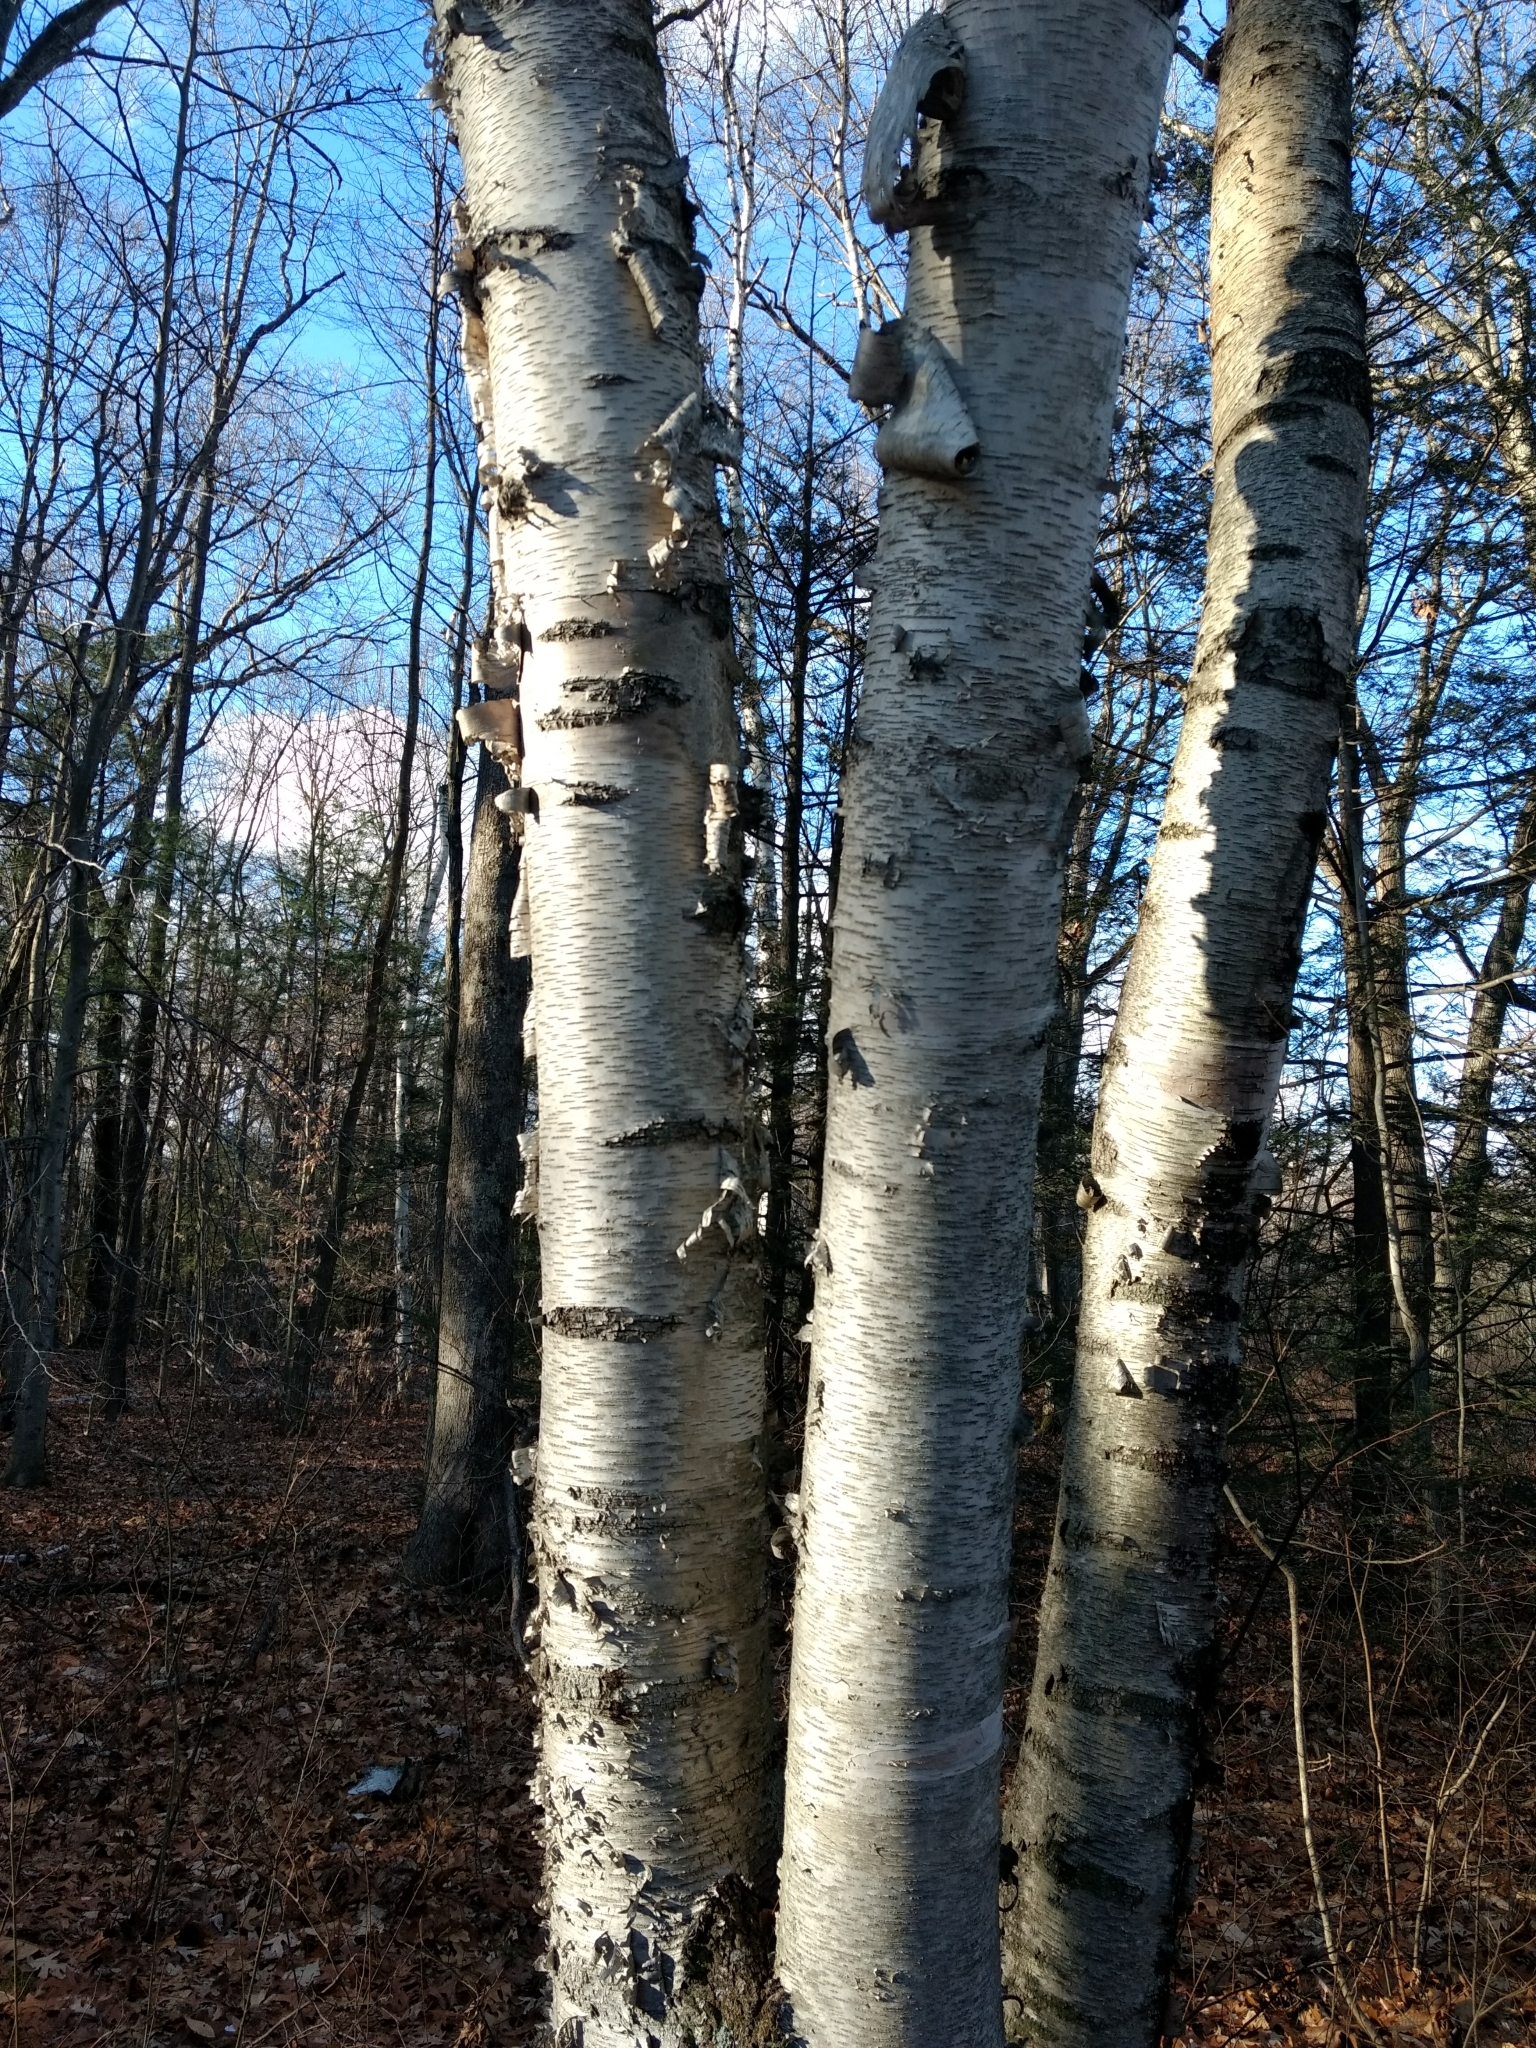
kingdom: Plantae
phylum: Tracheophyta
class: Magnoliopsida
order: Fagales
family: Betulaceae
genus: Betula
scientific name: Betula papyrifera
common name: Paper birch
